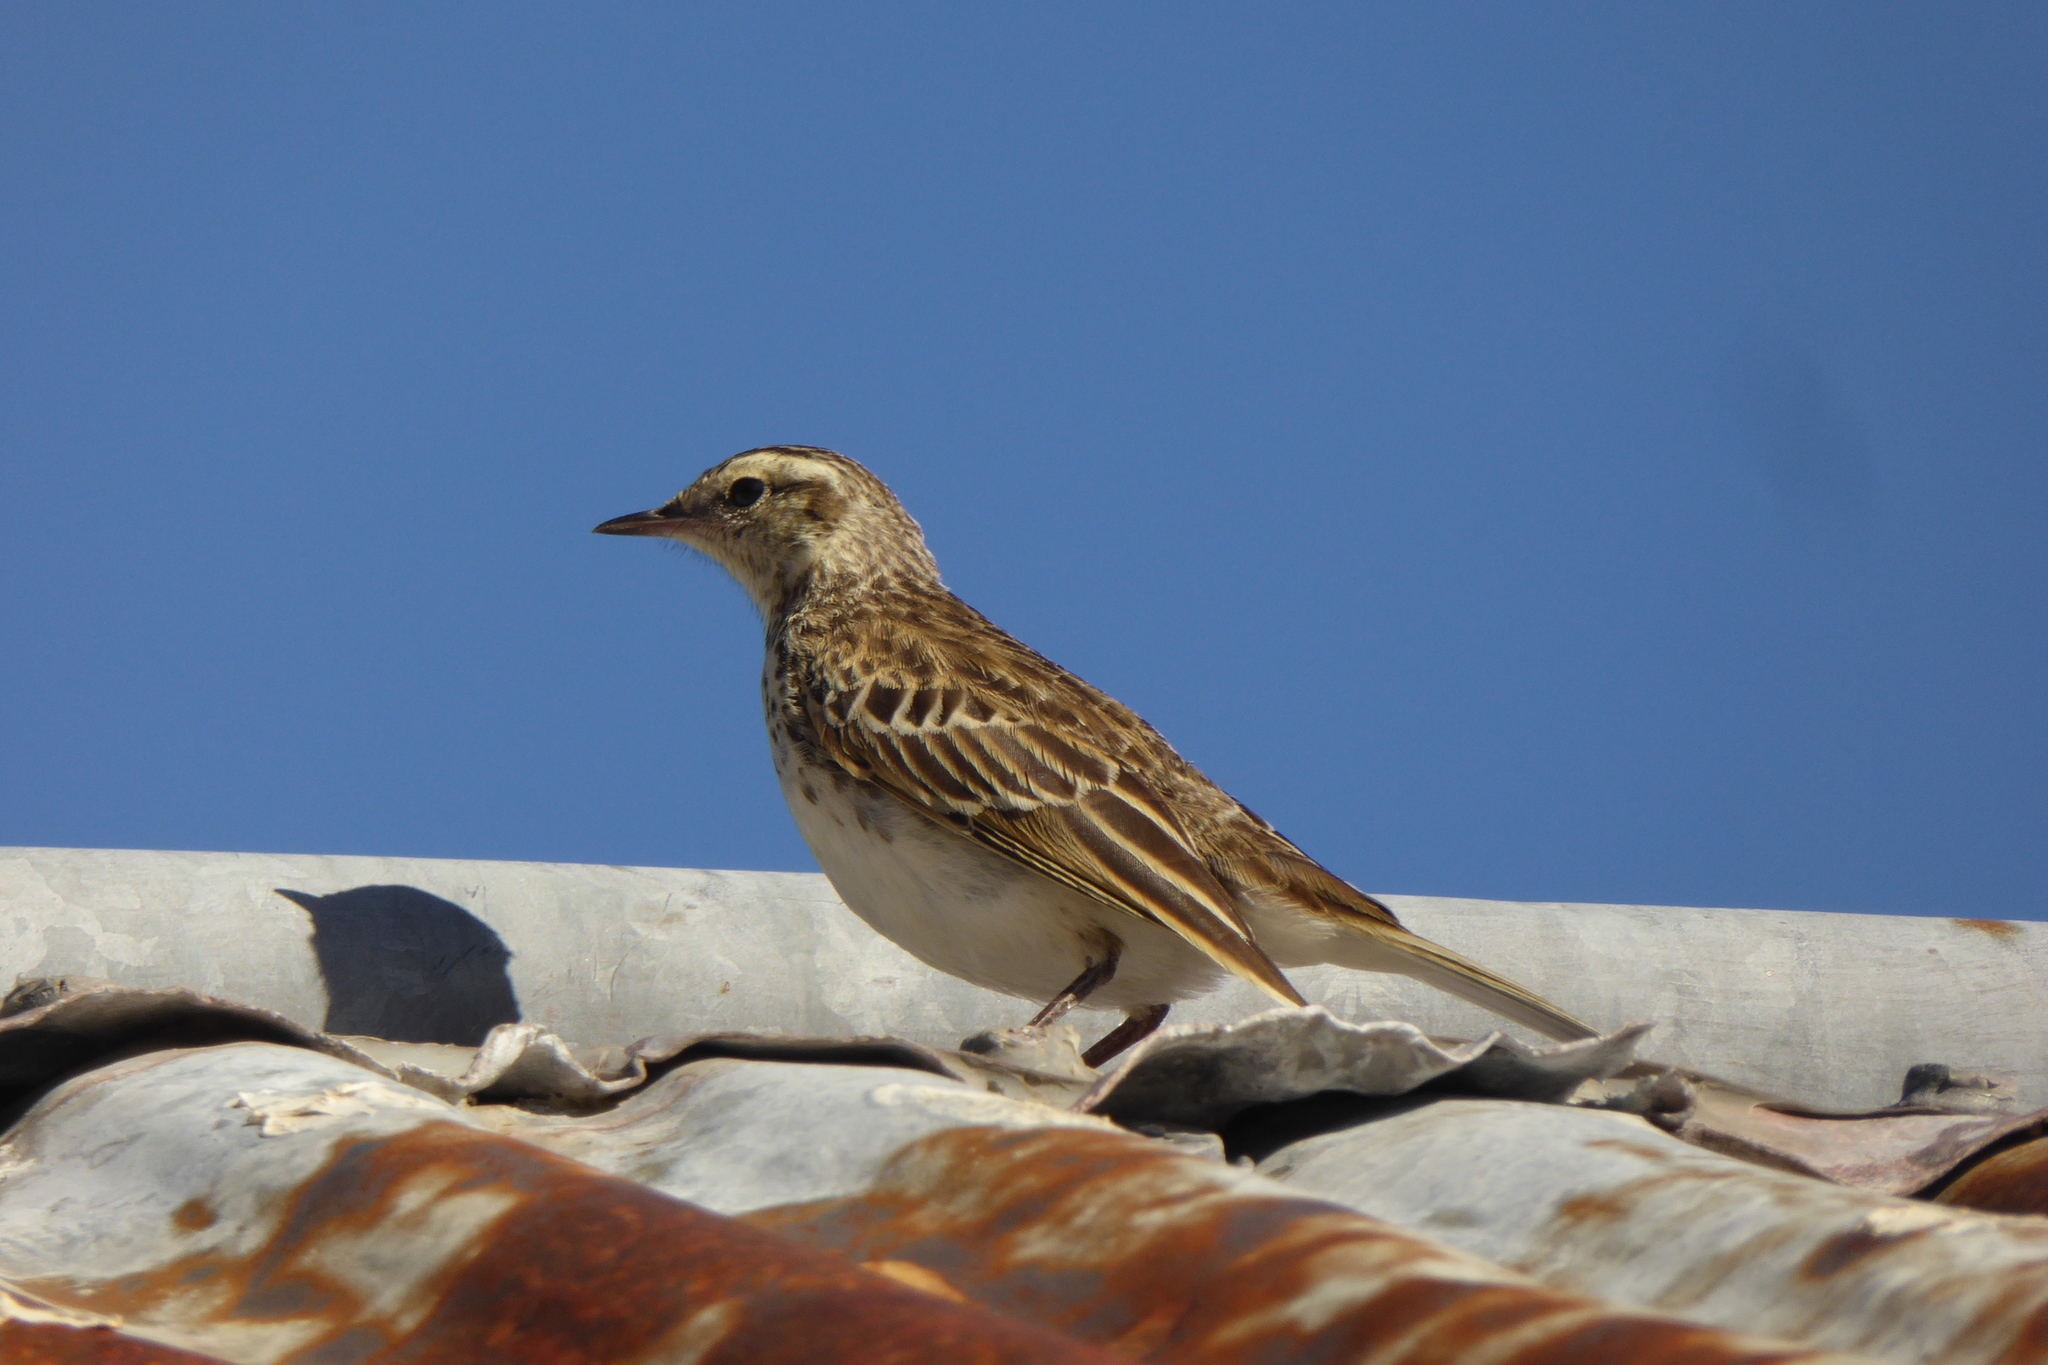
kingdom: Animalia
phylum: Chordata
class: Aves
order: Passeriformes
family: Motacillidae
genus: Anthus
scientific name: Anthus novaeseelandiae
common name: New zealand pipit
